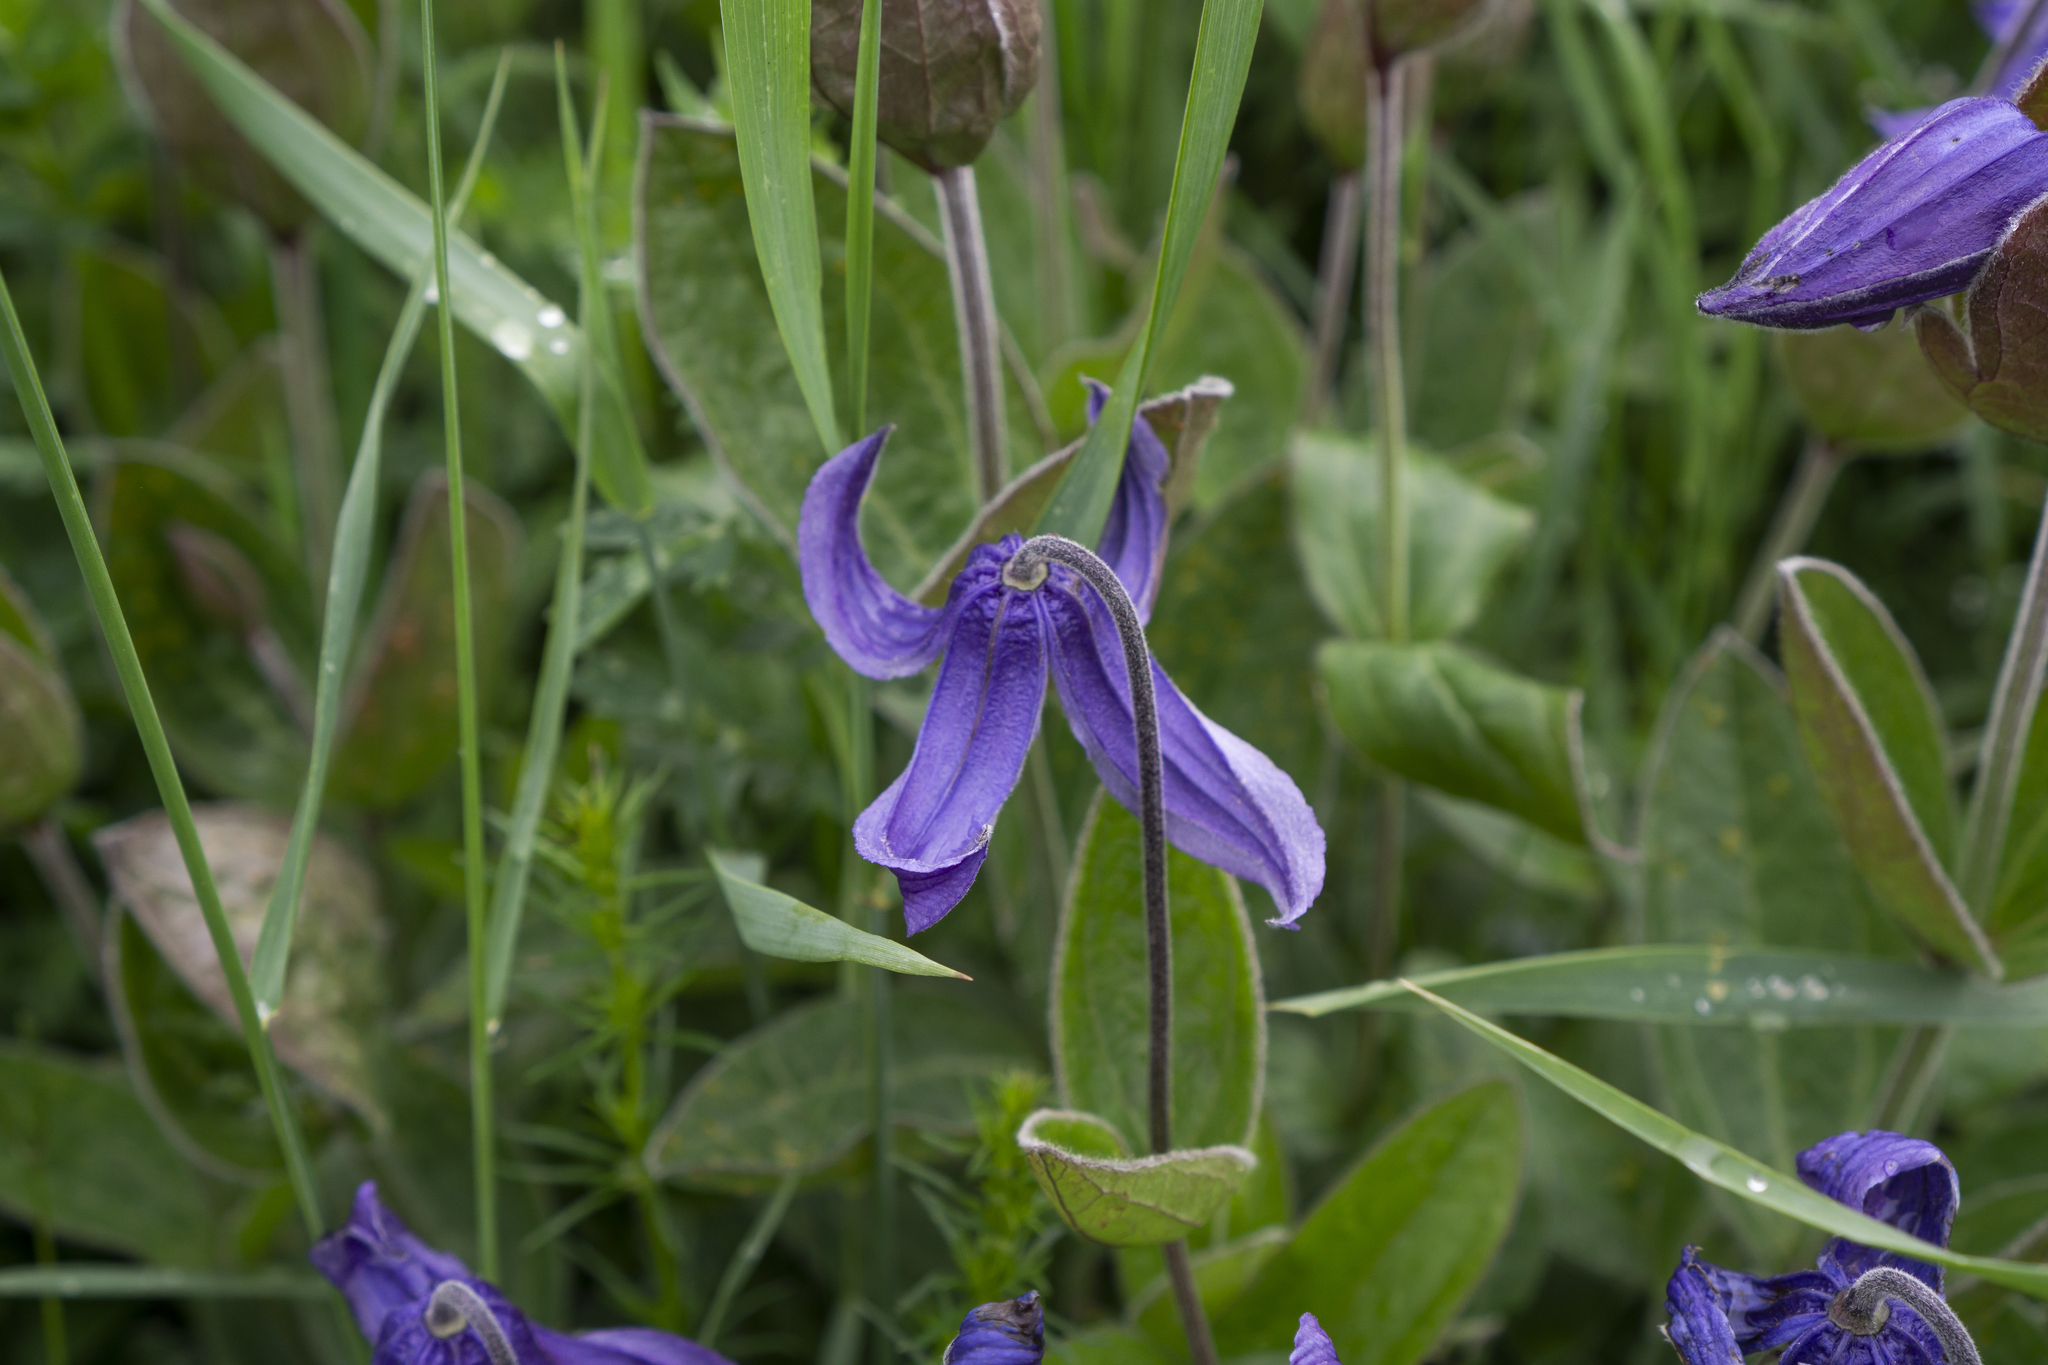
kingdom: Plantae
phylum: Tracheophyta
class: Magnoliopsida
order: Ranunculales
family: Ranunculaceae
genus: Clematis
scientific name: Clematis integrifolia
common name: Solitary clematis
